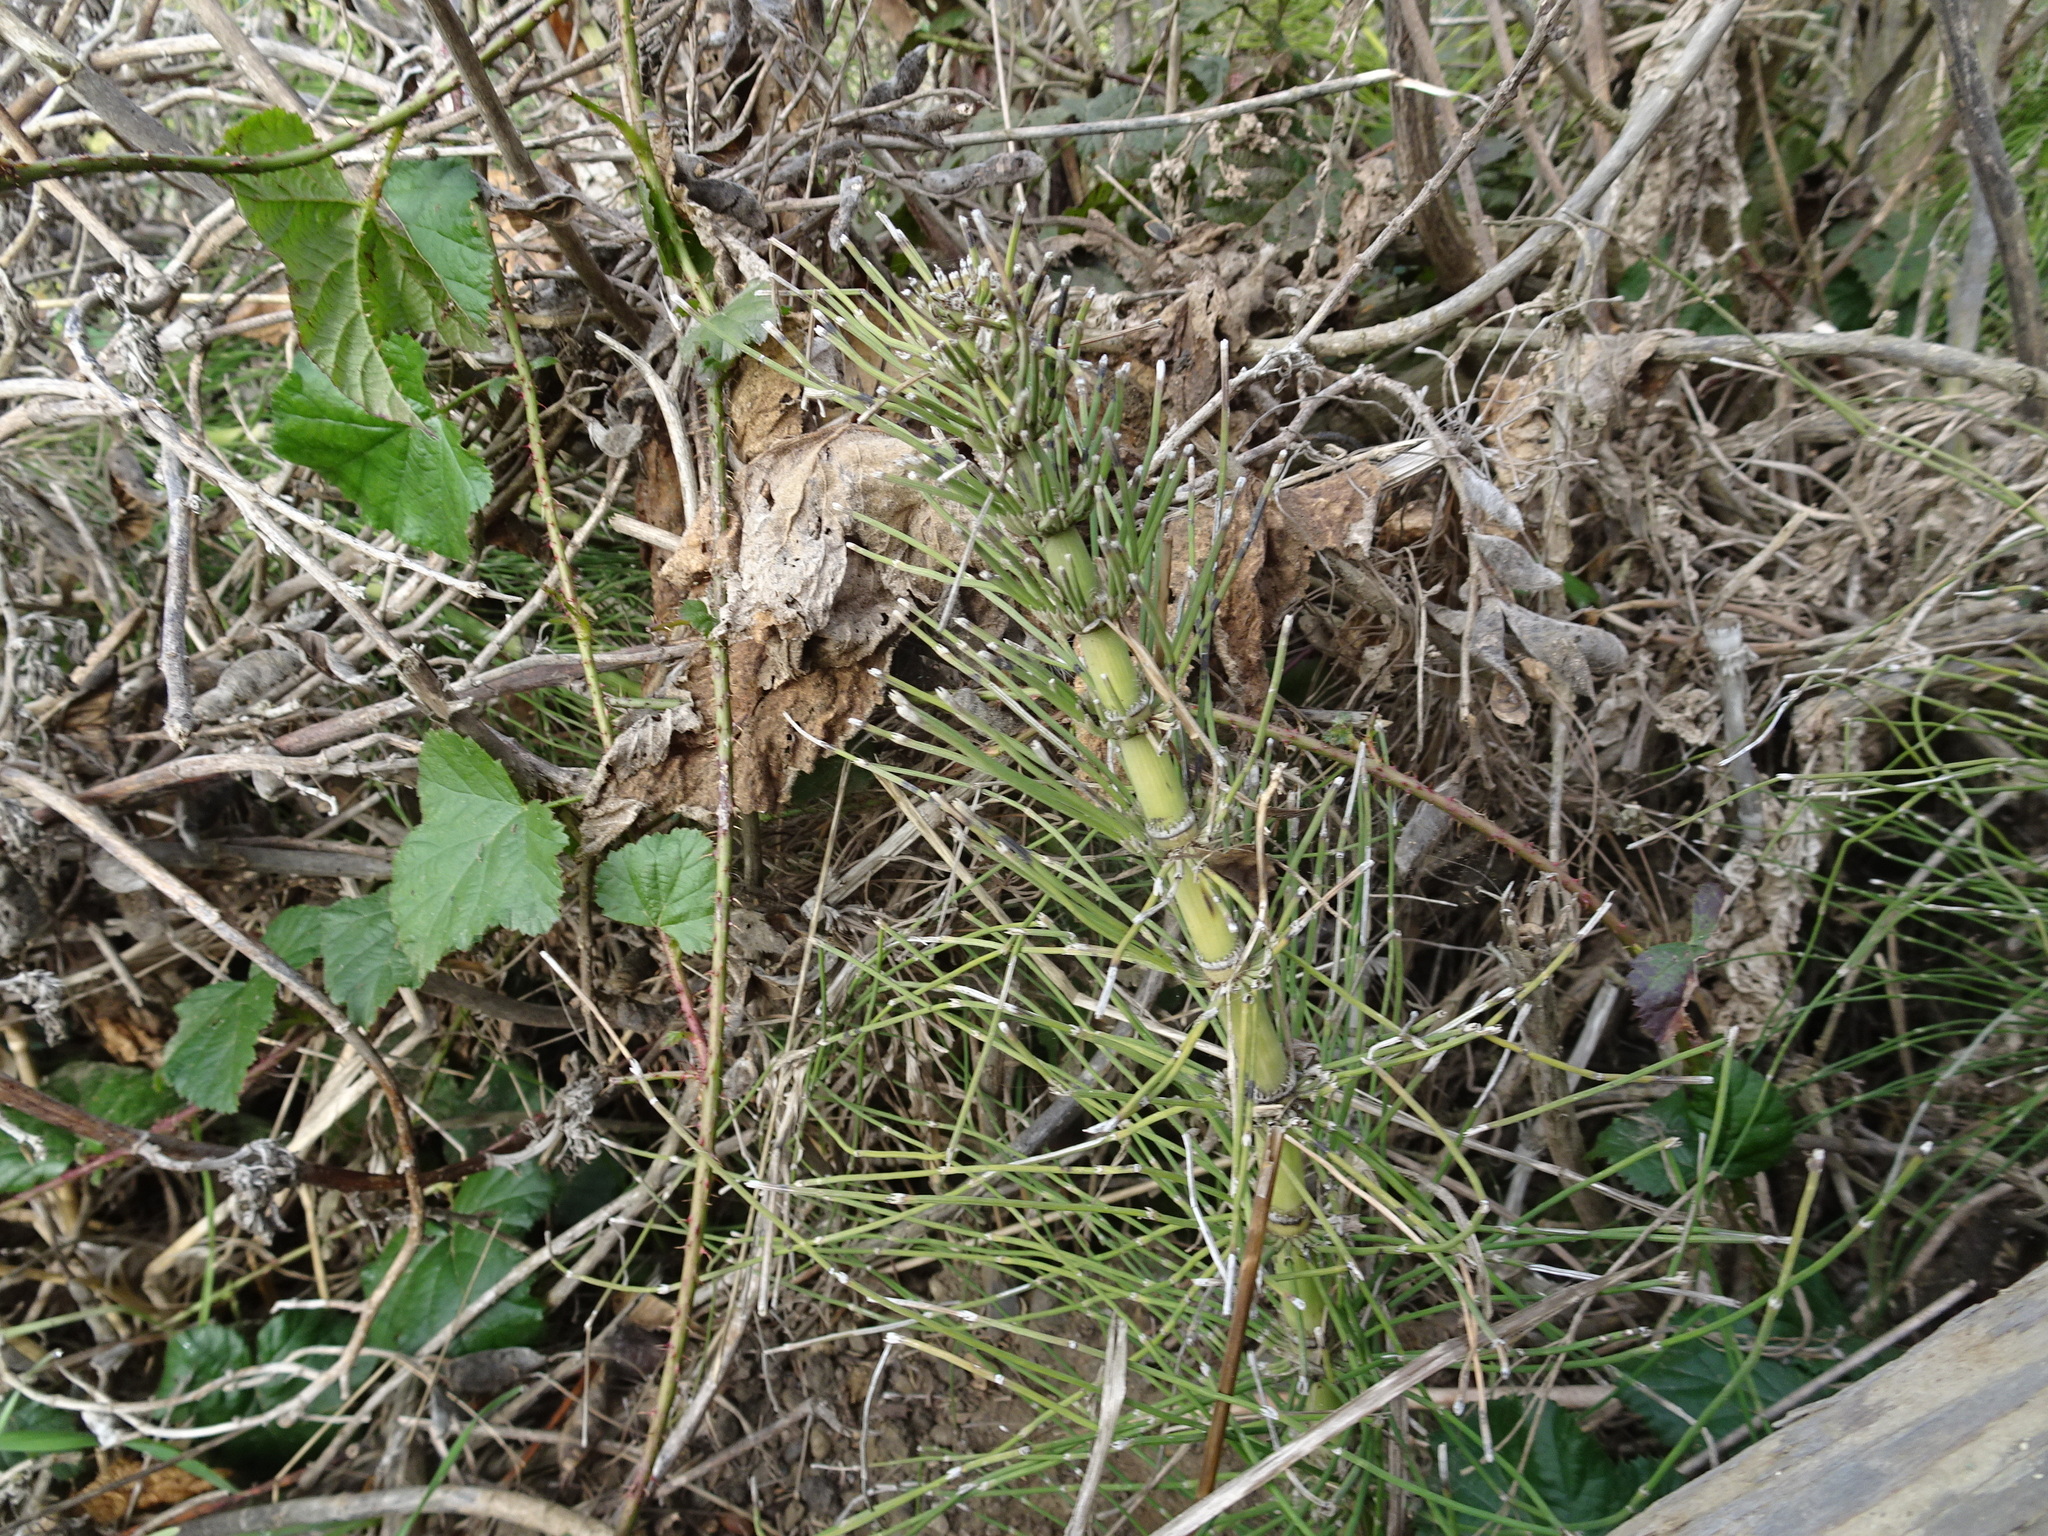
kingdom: Plantae
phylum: Tracheophyta
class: Polypodiopsida
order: Equisetales
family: Equisetaceae
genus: Equisetum
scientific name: Equisetum telmateia
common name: Great horsetail
